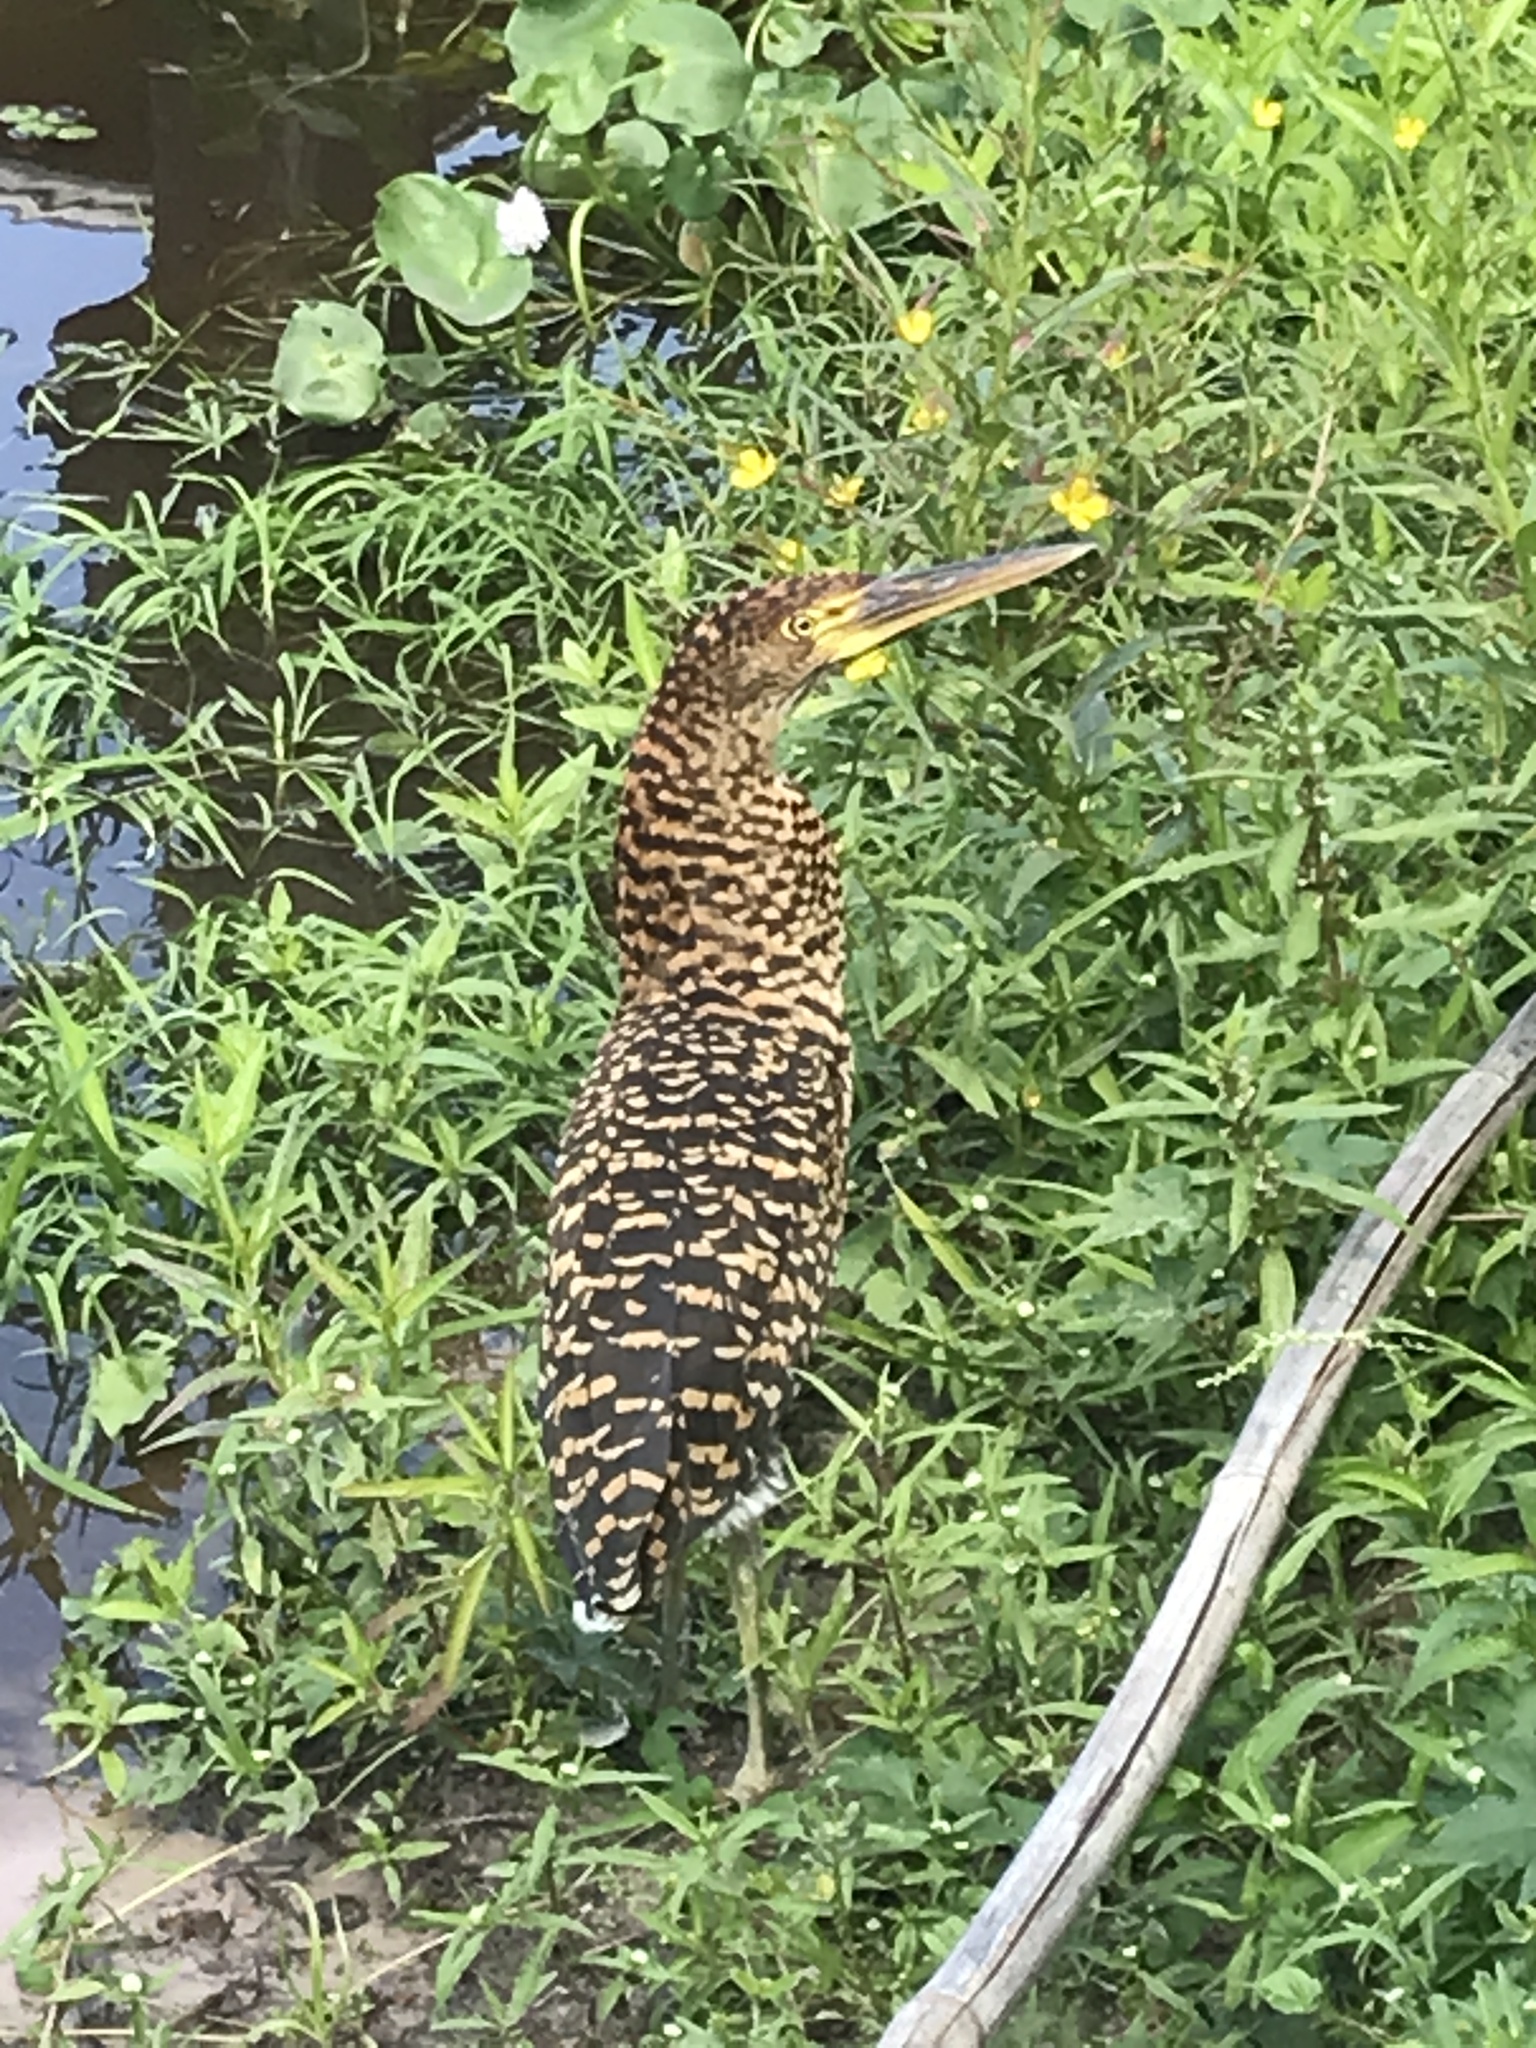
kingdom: Animalia
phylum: Chordata
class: Aves
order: Pelecaniformes
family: Ardeidae
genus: Tigrisoma
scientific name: Tigrisoma lineatum
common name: Rufescent tiger-heron
